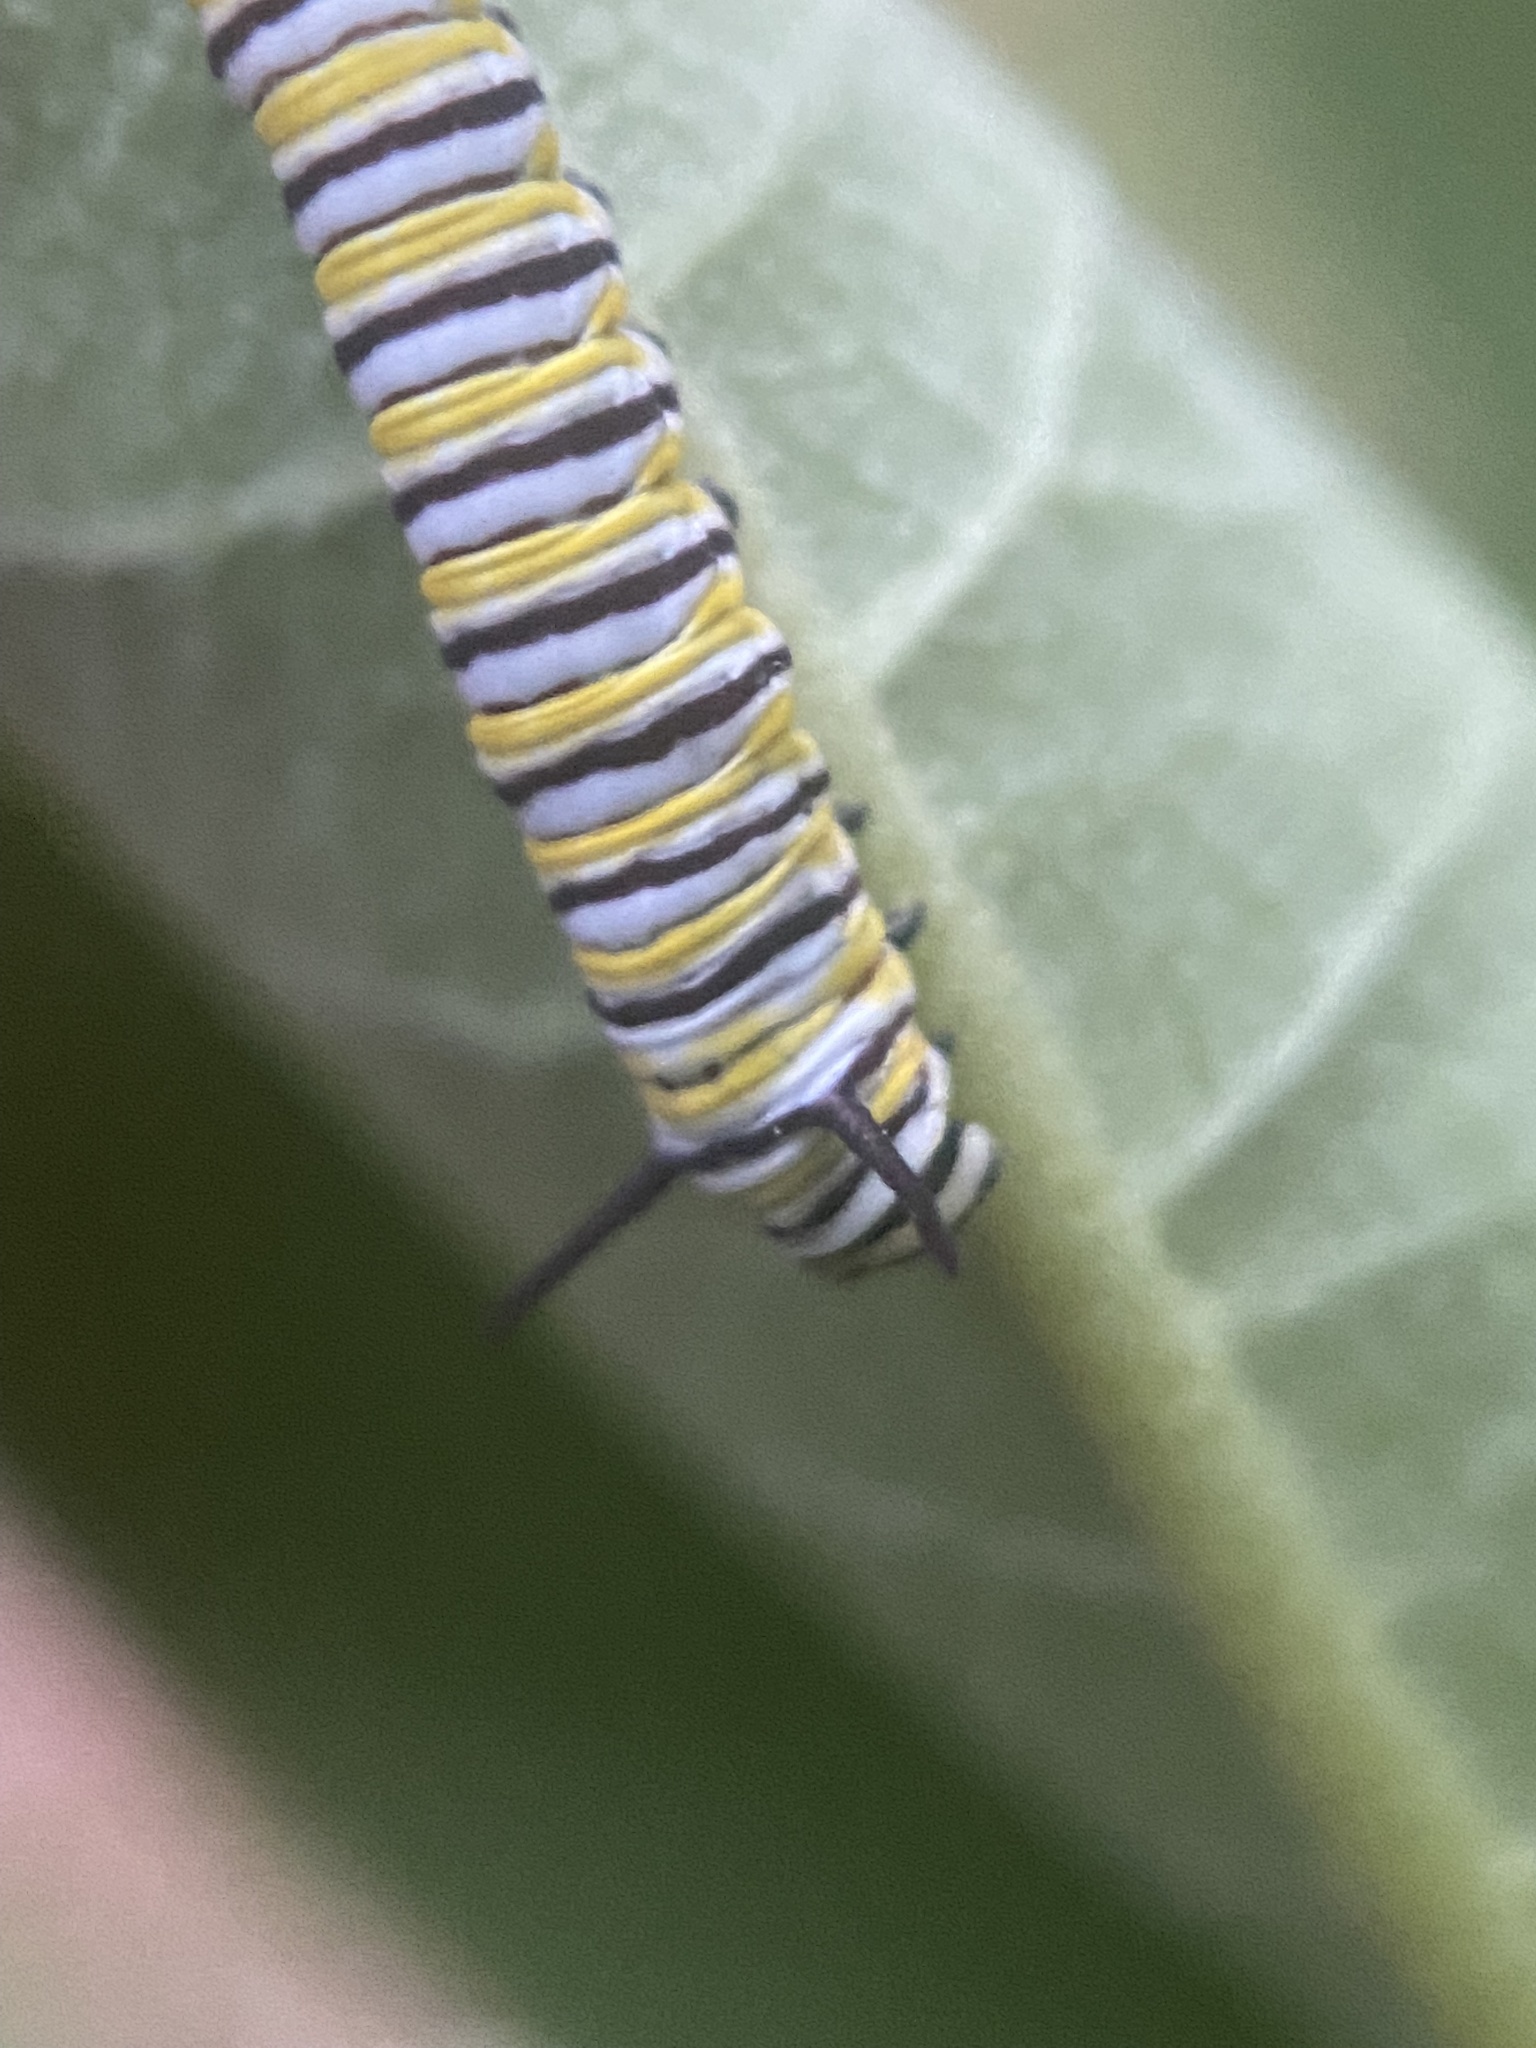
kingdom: Animalia
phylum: Arthropoda
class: Insecta
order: Lepidoptera
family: Nymphalidae
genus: Danaus
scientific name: Danaus plexippus
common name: Monarch
